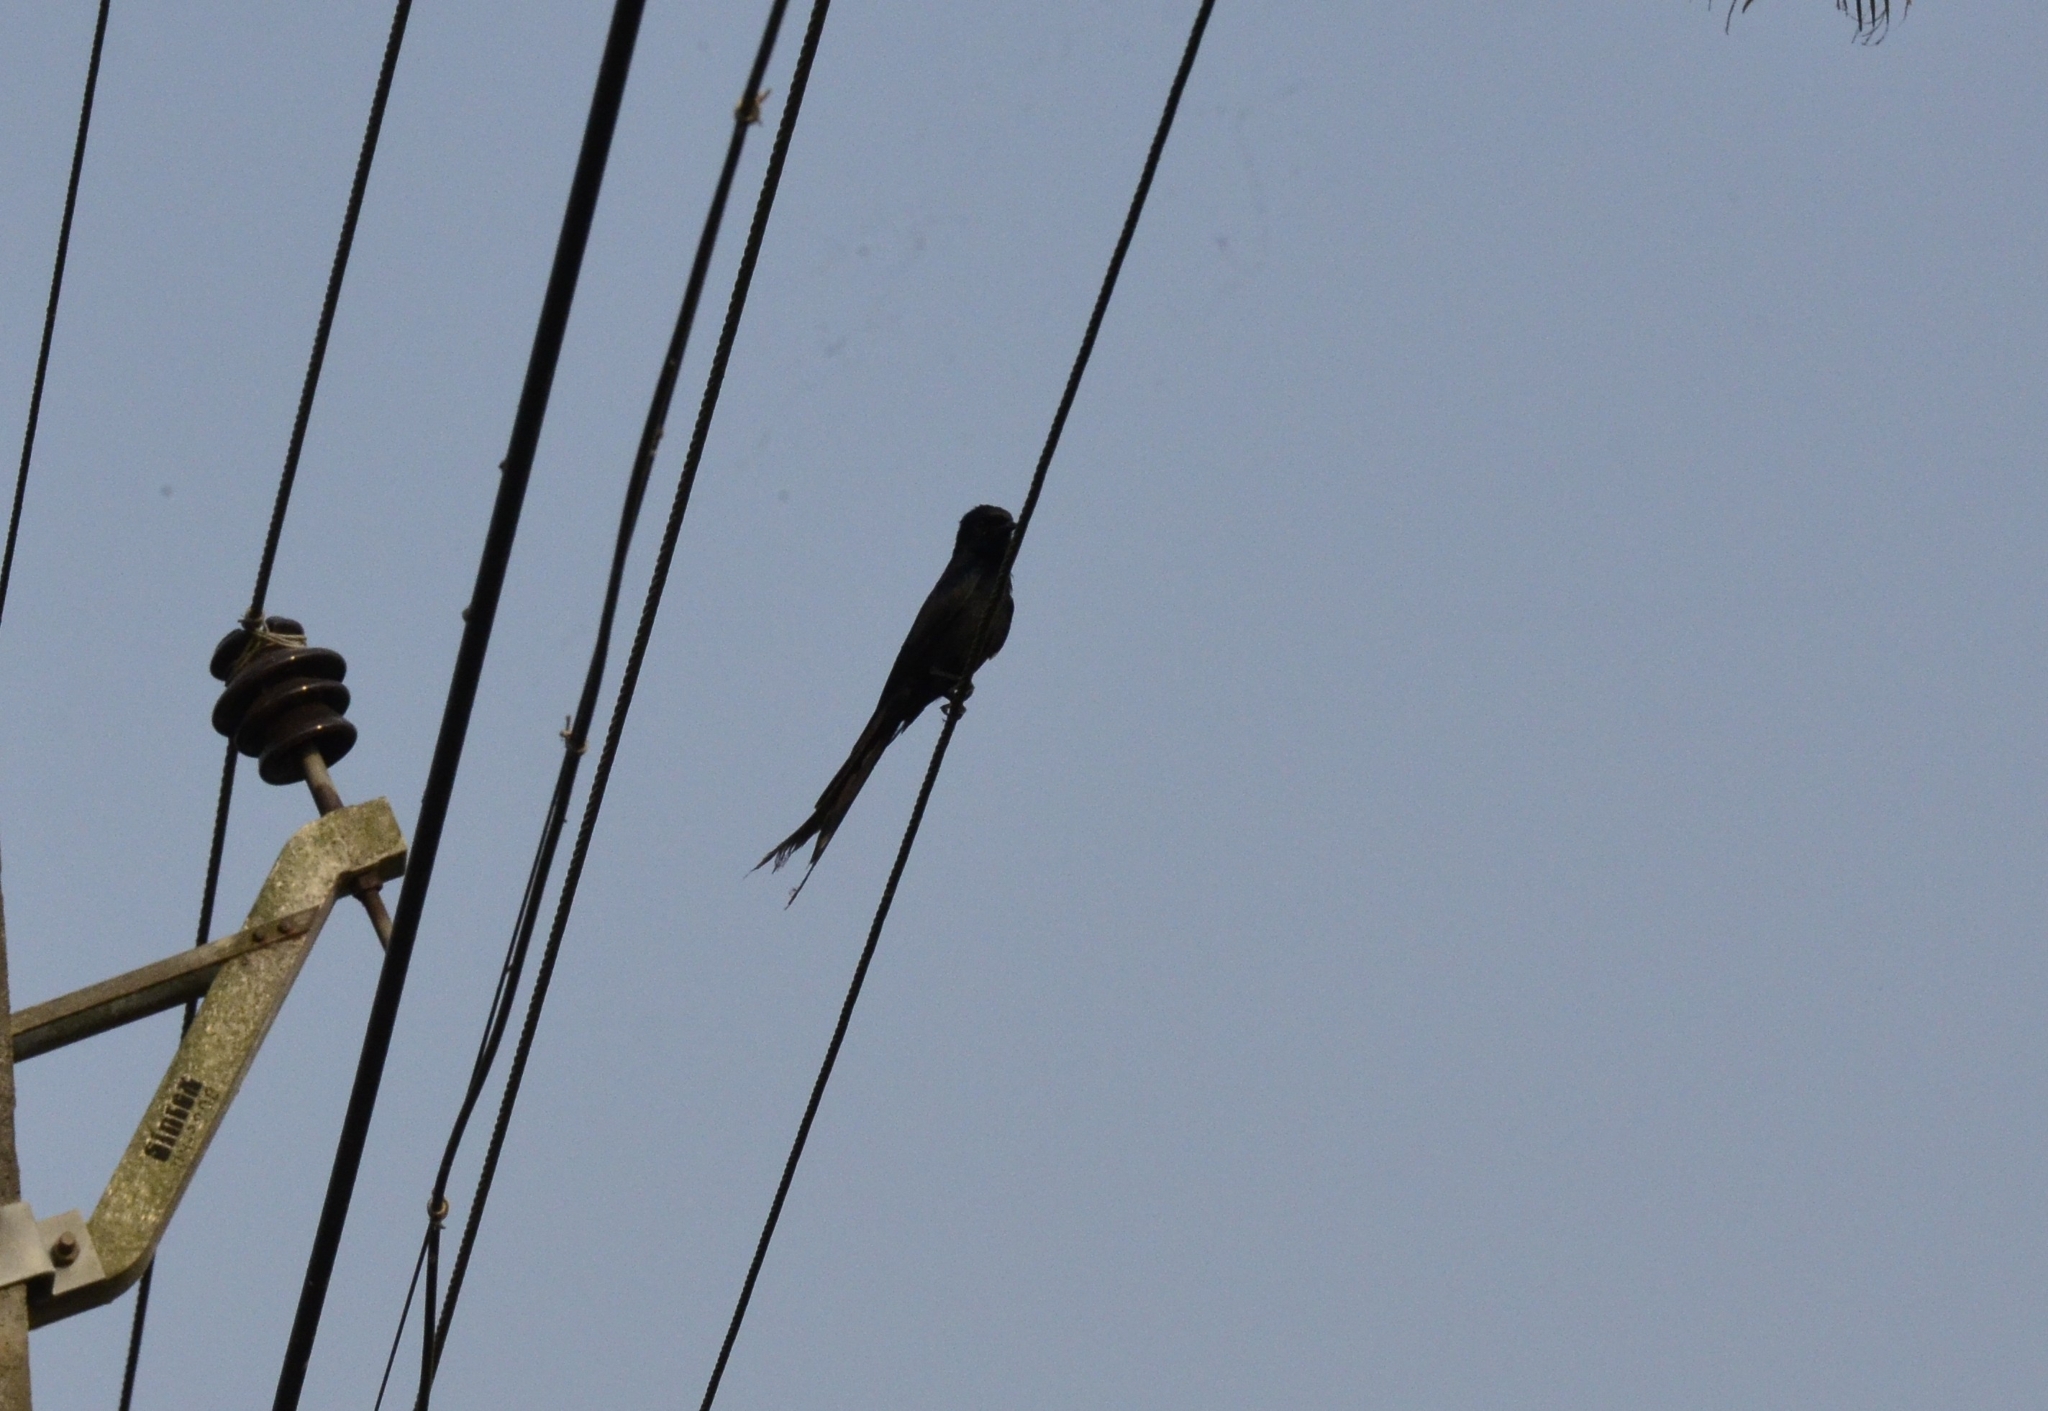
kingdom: Animalia
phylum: Chordata
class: Aves
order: Passeriformes
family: Dicruridae
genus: Dicrurus
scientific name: Dicrurus macrocercus
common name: Black drongo
